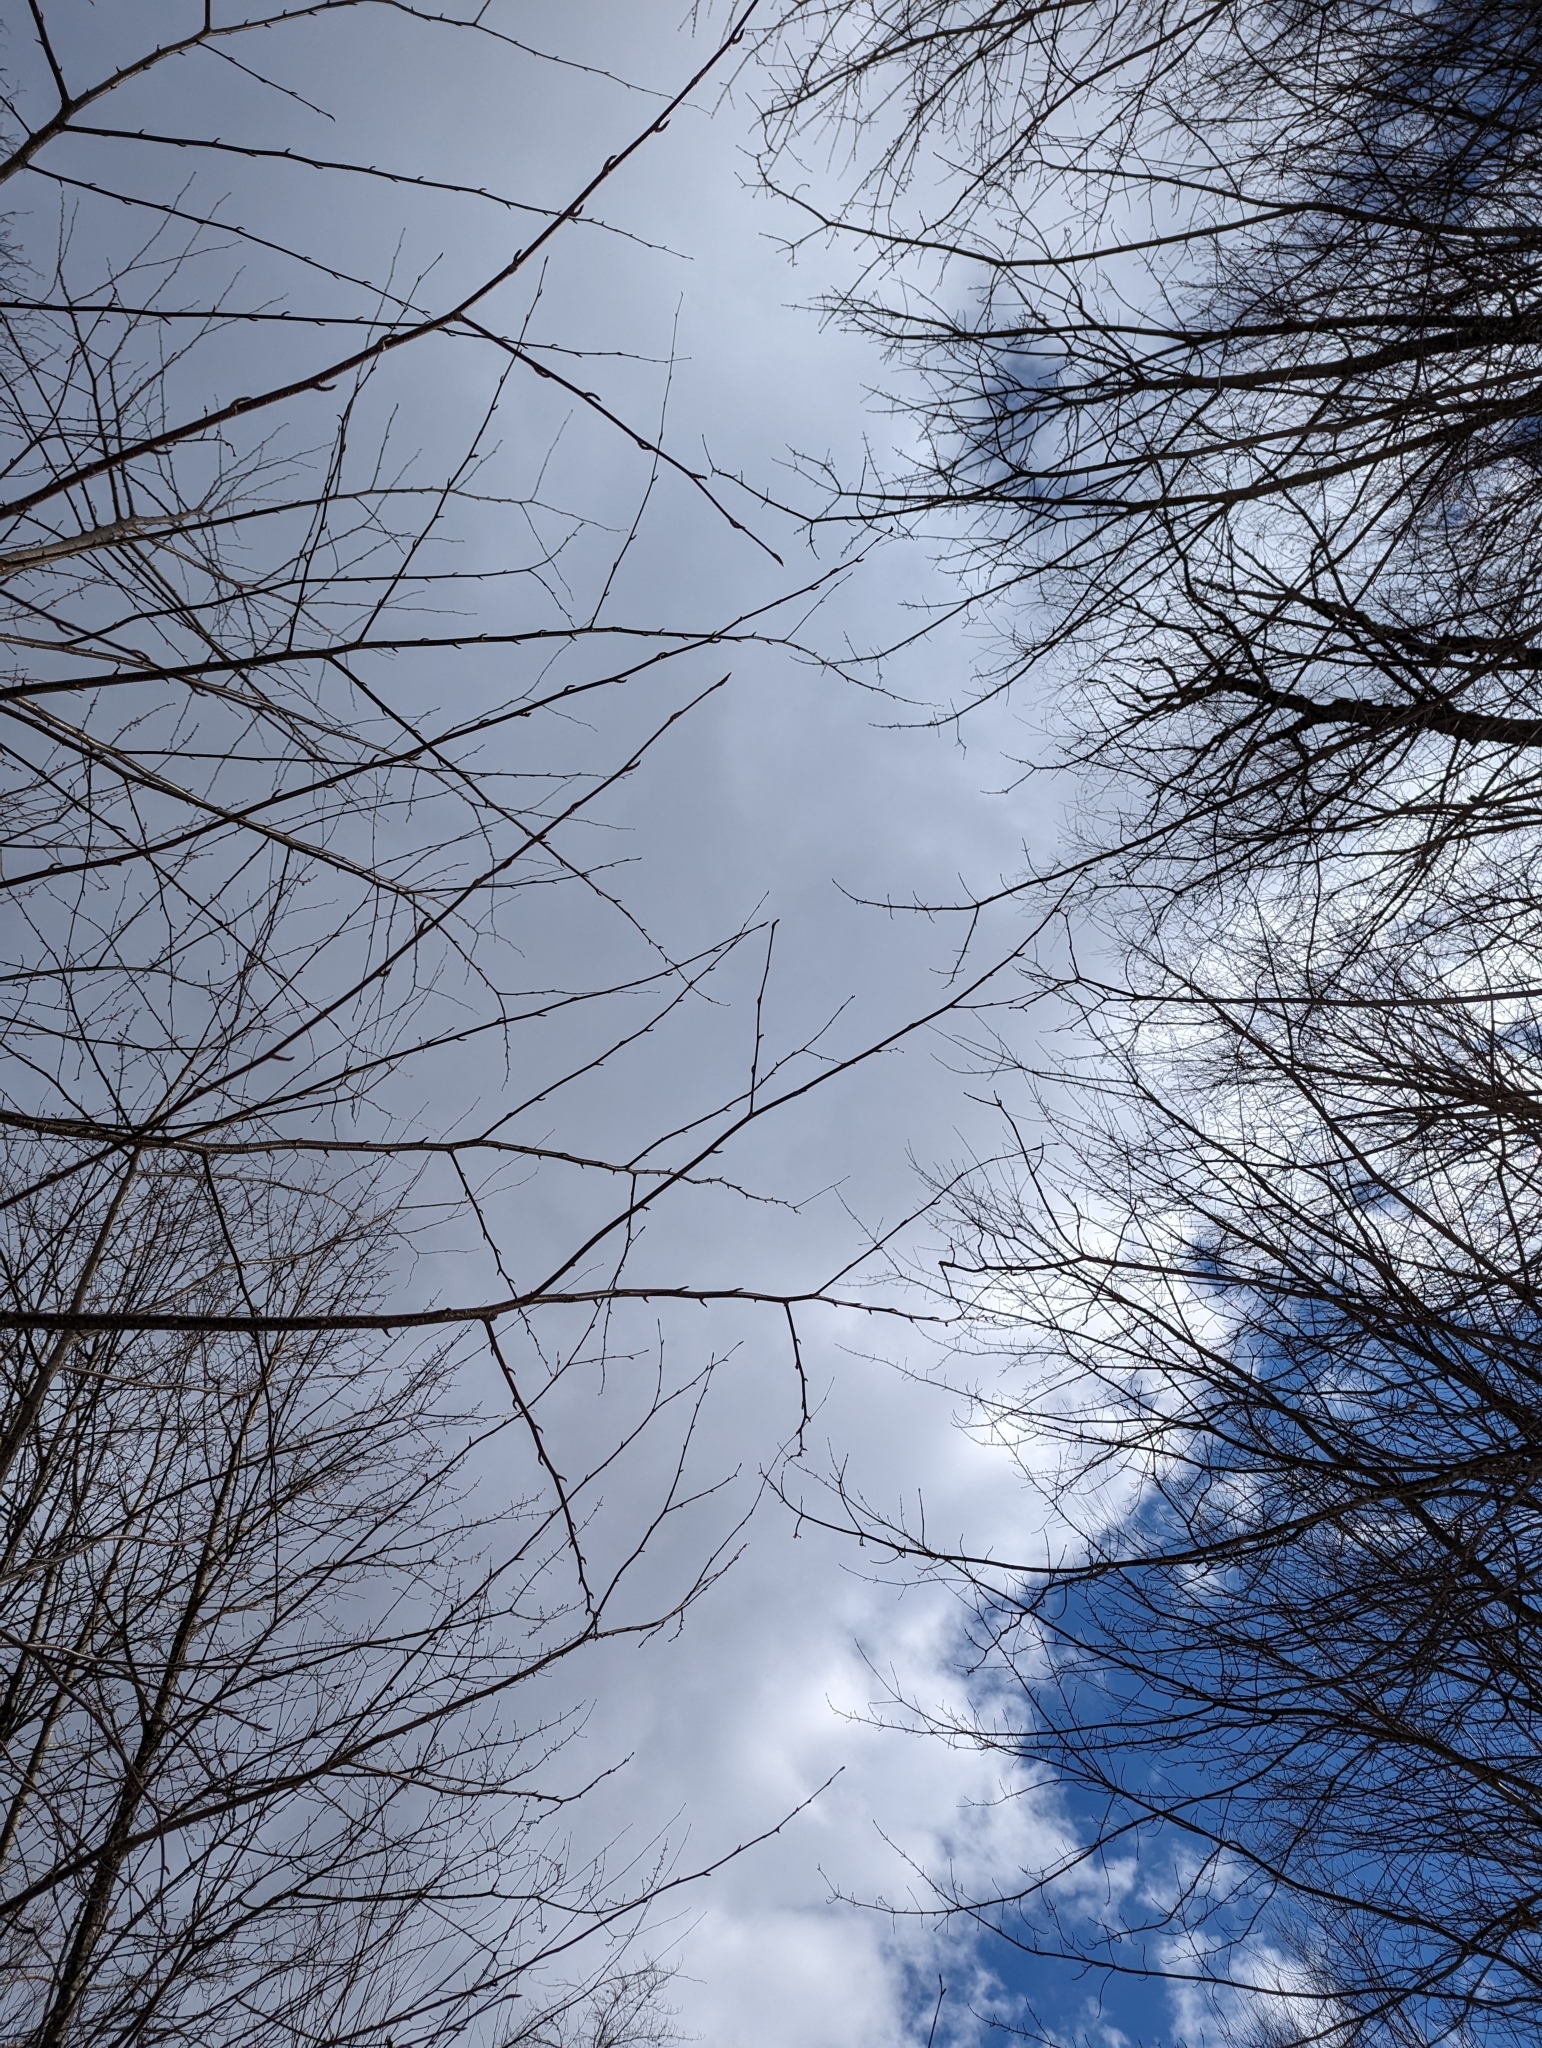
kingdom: Plantae
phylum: Tracheophyta
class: Magnoliopsida
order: Fagales
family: Betulaceae
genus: Betula
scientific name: Betula alleghaniensis
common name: Yellow birch
